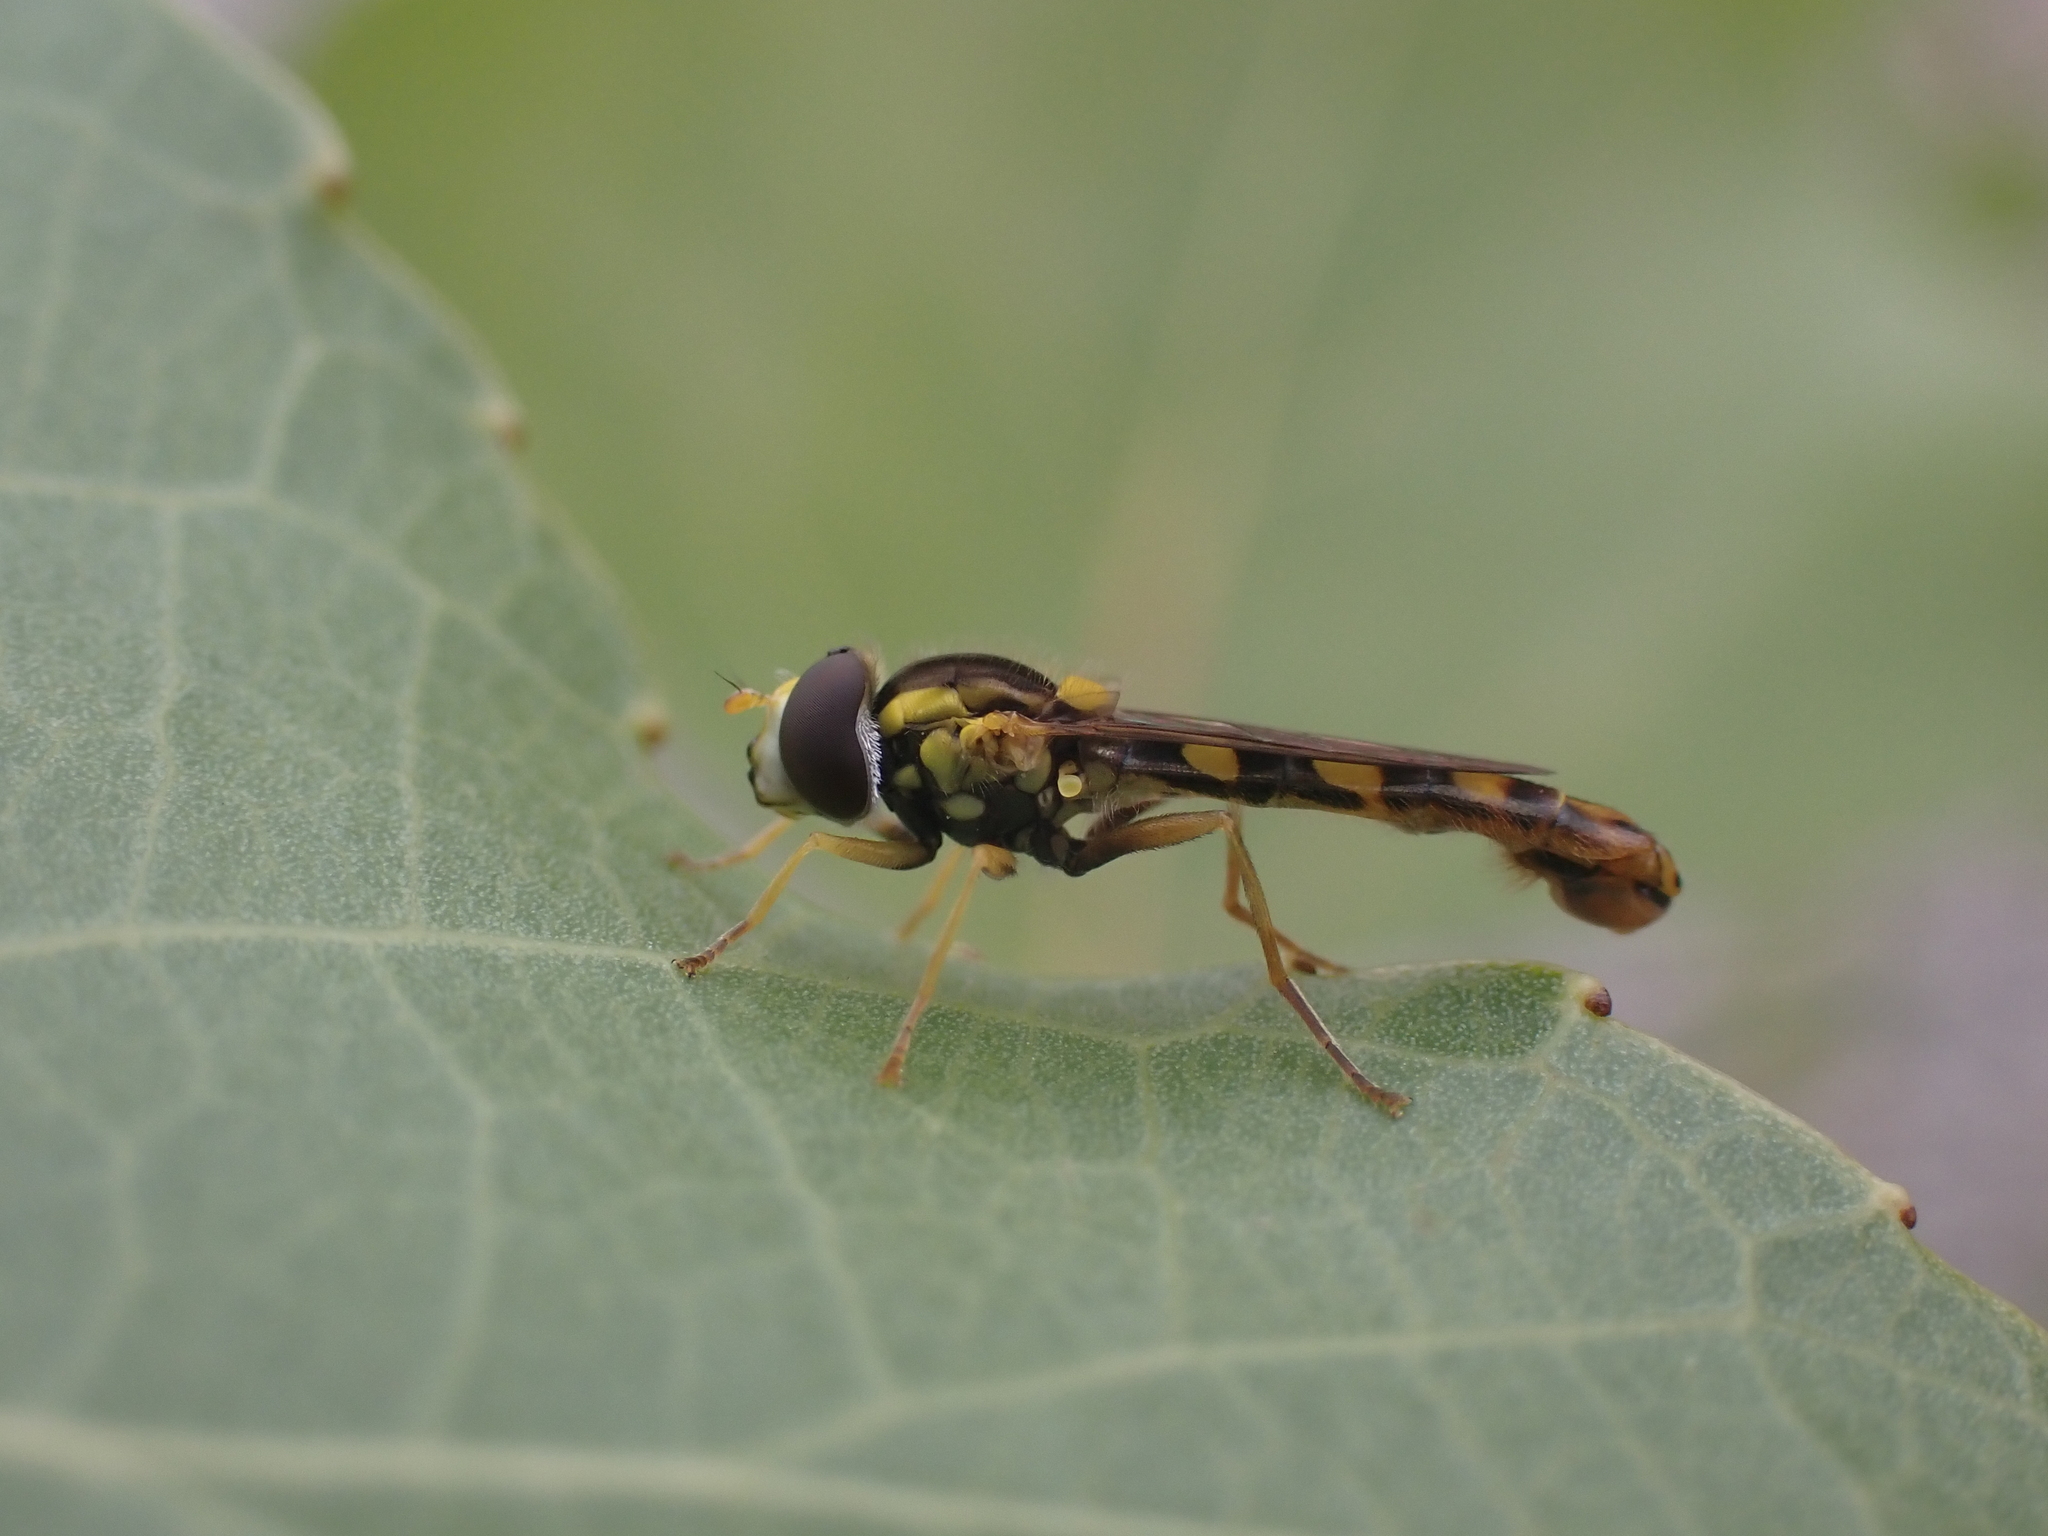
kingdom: Animalia
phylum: Arthropoda
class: Insecta
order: Diptera
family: Syrphidae
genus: Sphaerophoria
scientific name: Sphaerophoria scripta
